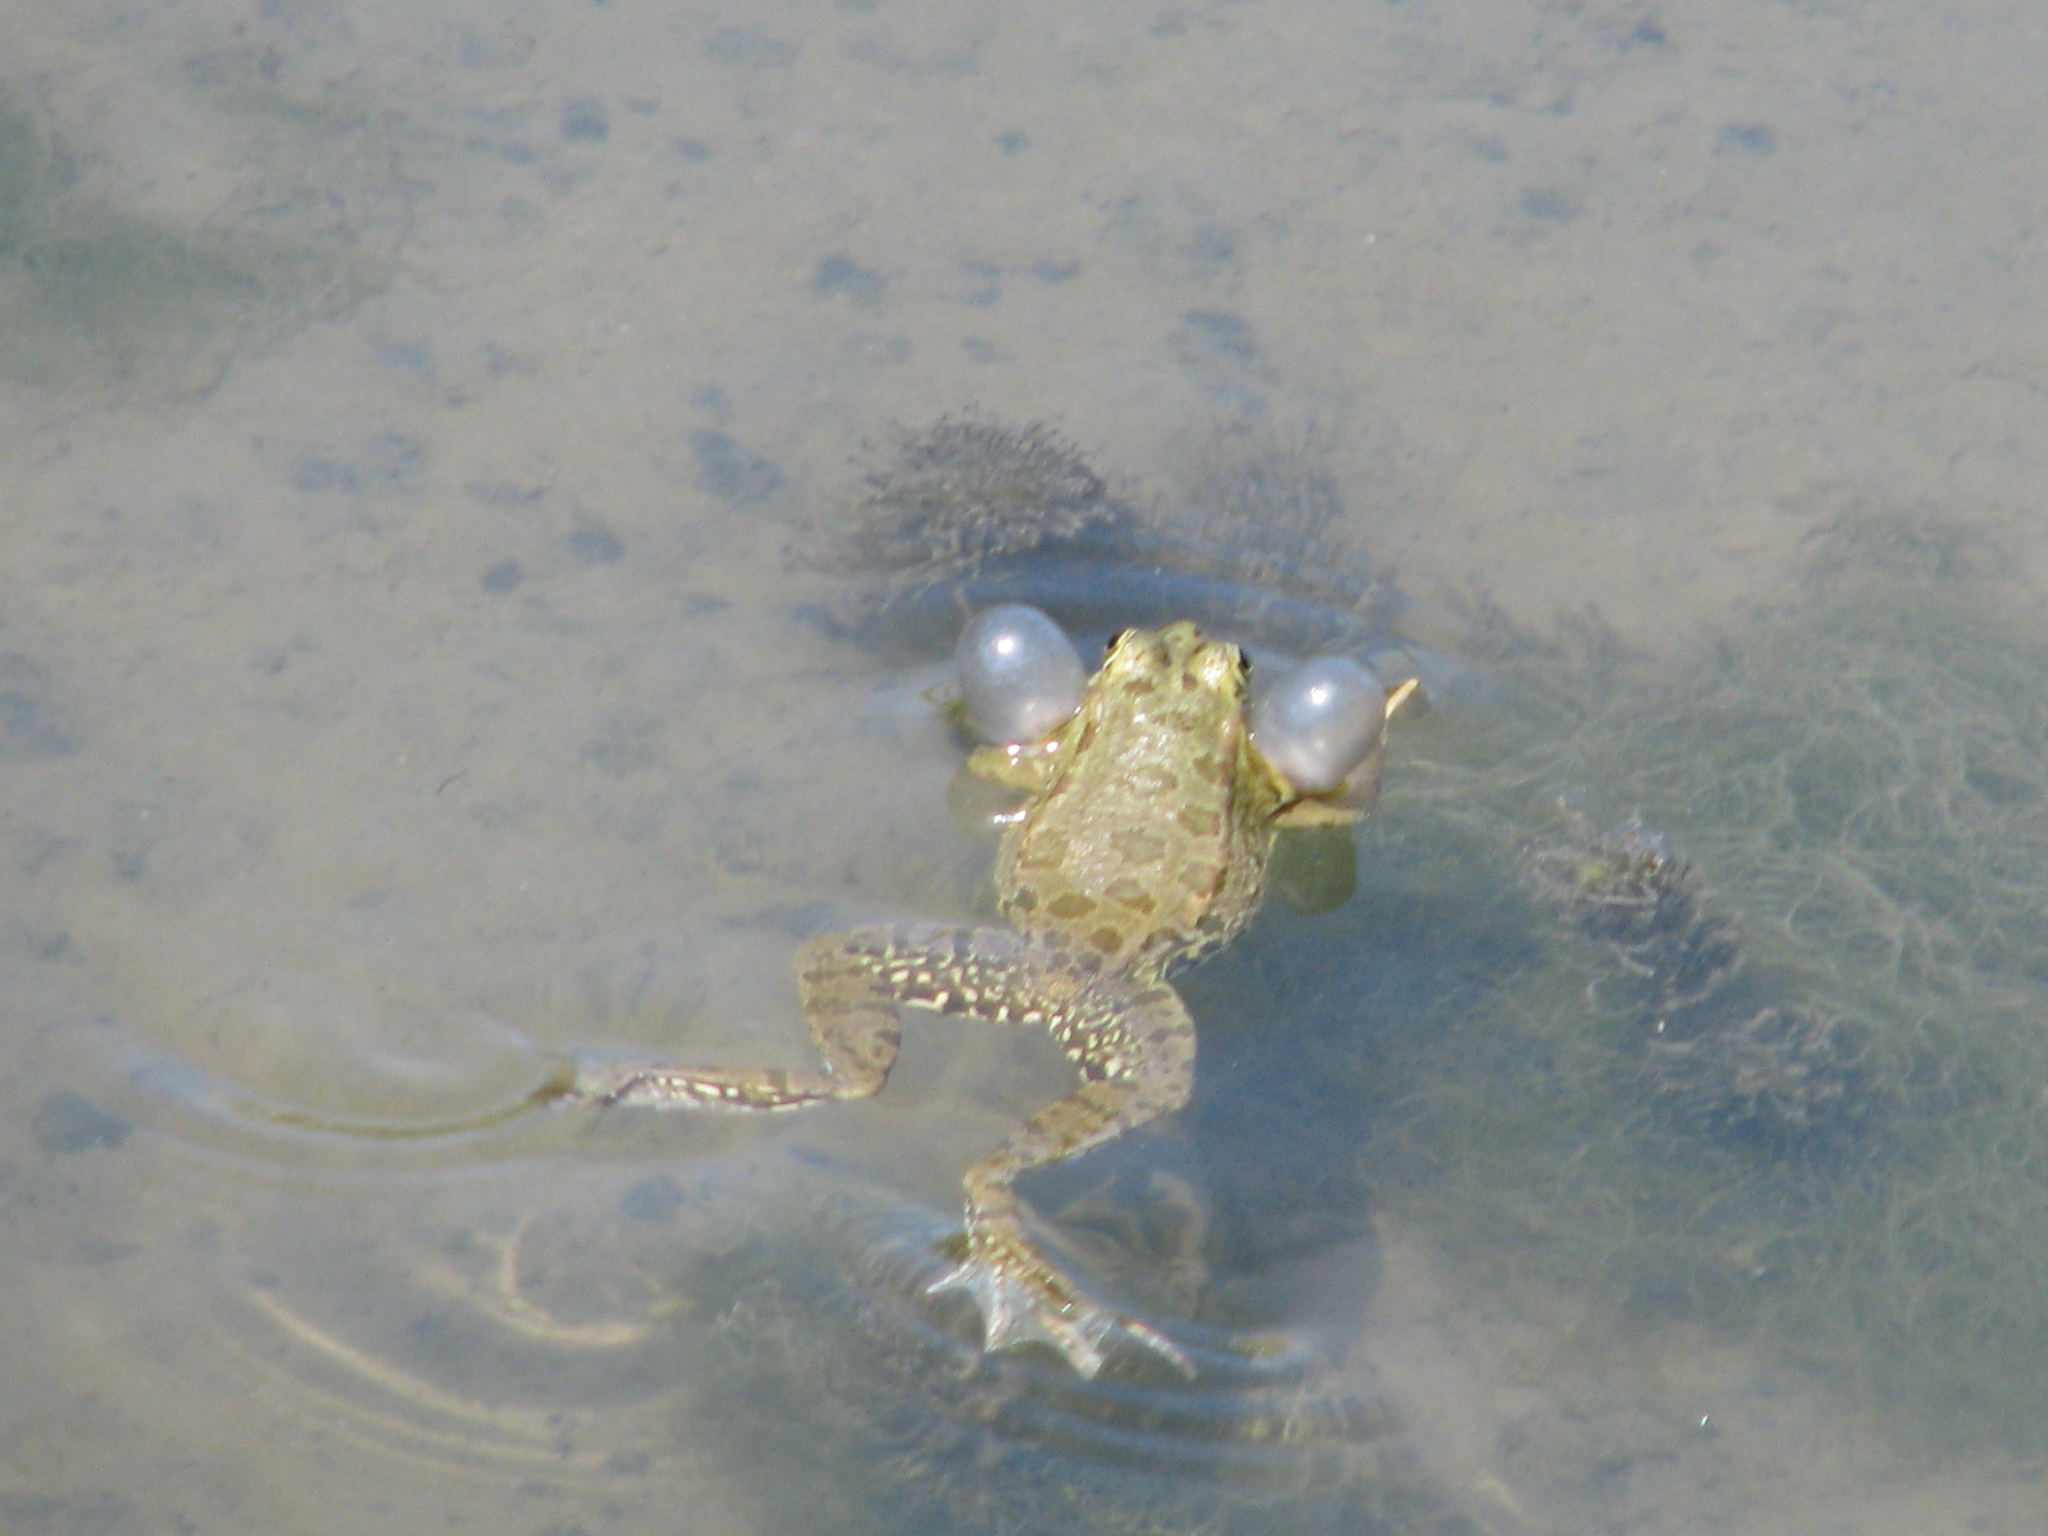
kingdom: Animalia
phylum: Chordata
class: Amphibia
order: Anura
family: Ranidae
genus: Pelophylax
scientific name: Pelophylax ridibundus
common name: Marsh frog
